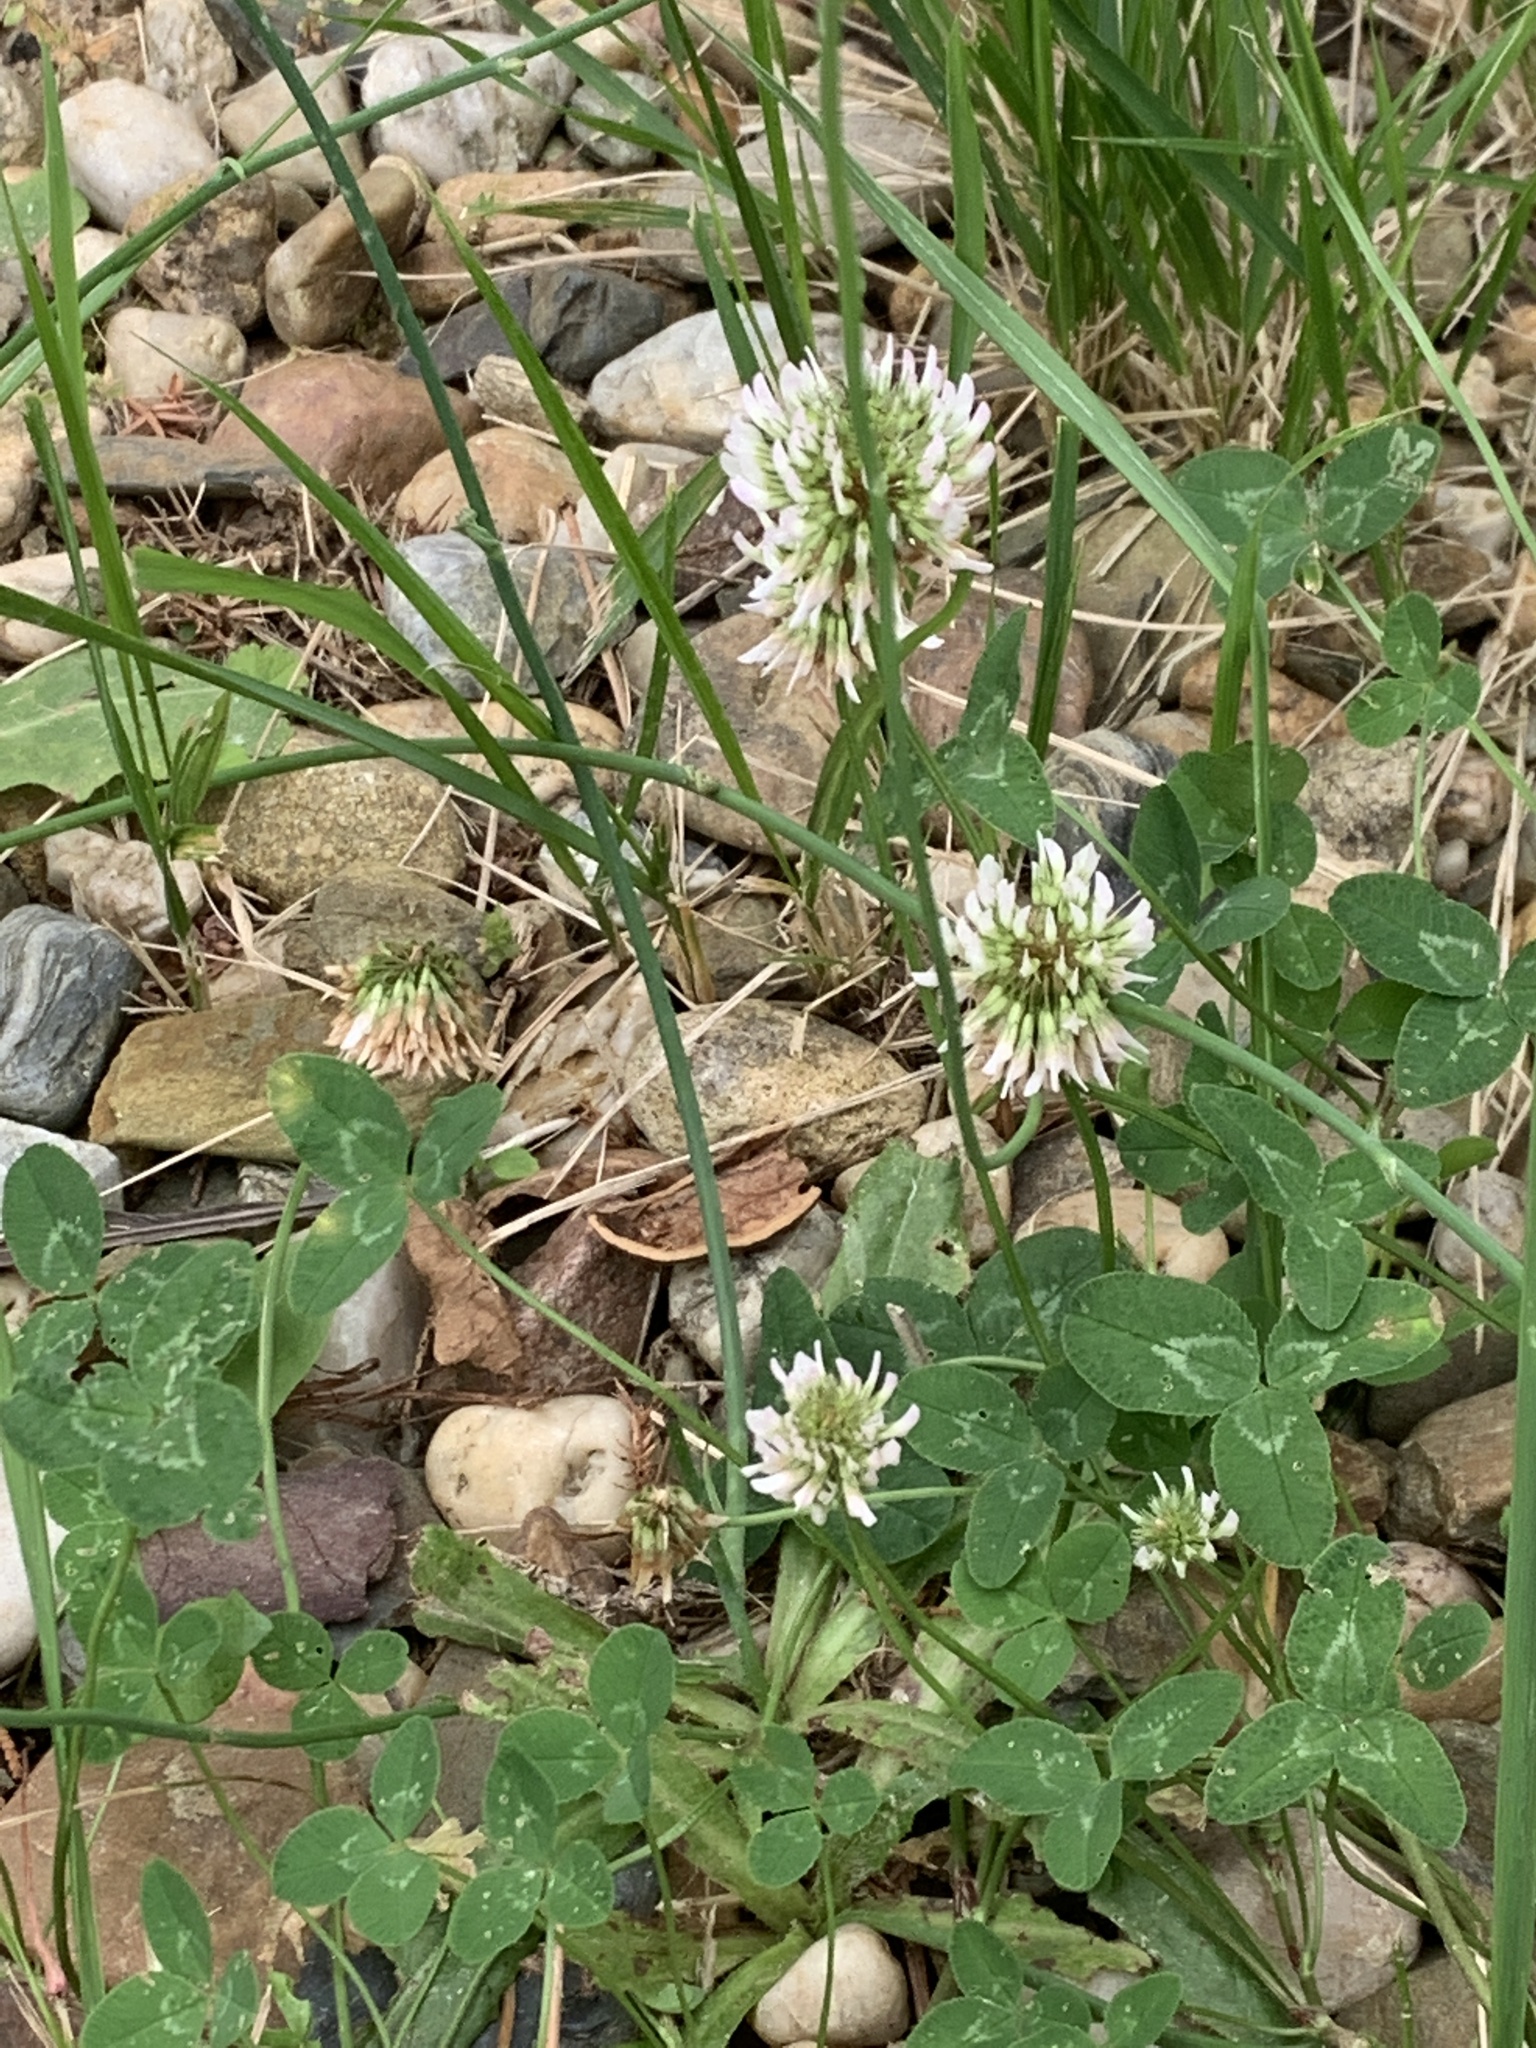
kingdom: Plantae
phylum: Tracheophyta
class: Magnoliopsida
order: Fabales
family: Fabaceae
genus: Trifolium
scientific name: Trifolium repens
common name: White clover
